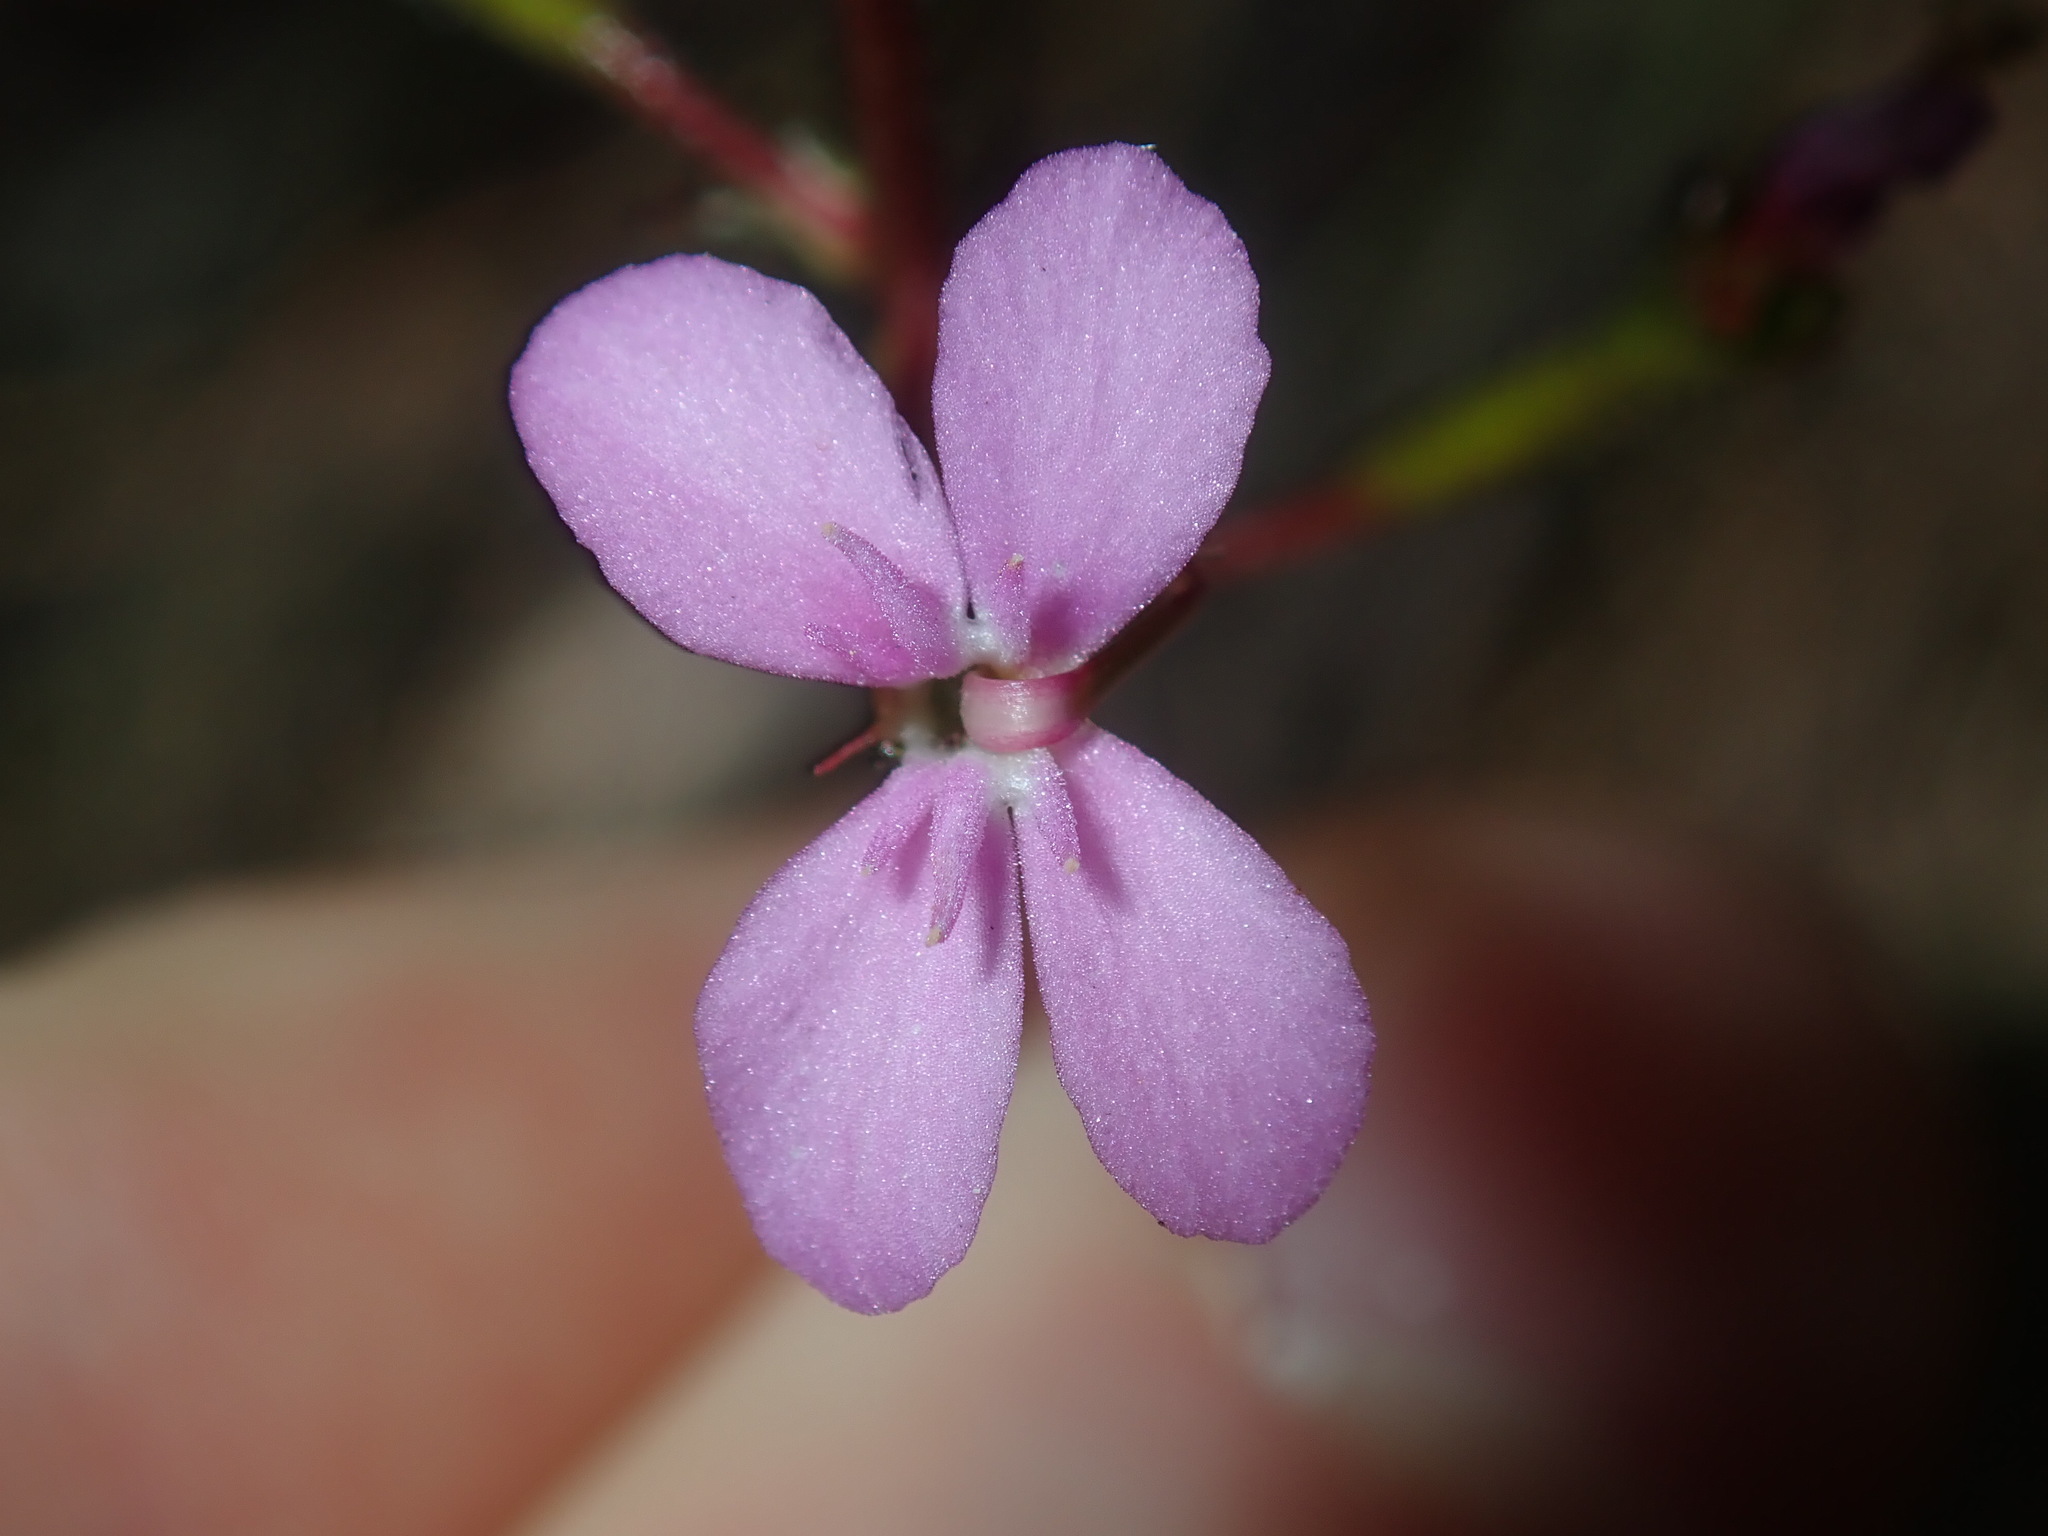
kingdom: Plantae
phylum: Tracheophyta
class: Magnoliopsida
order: Asterales
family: Stylidiaceae
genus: Stylidium
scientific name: Stylidium lineare
